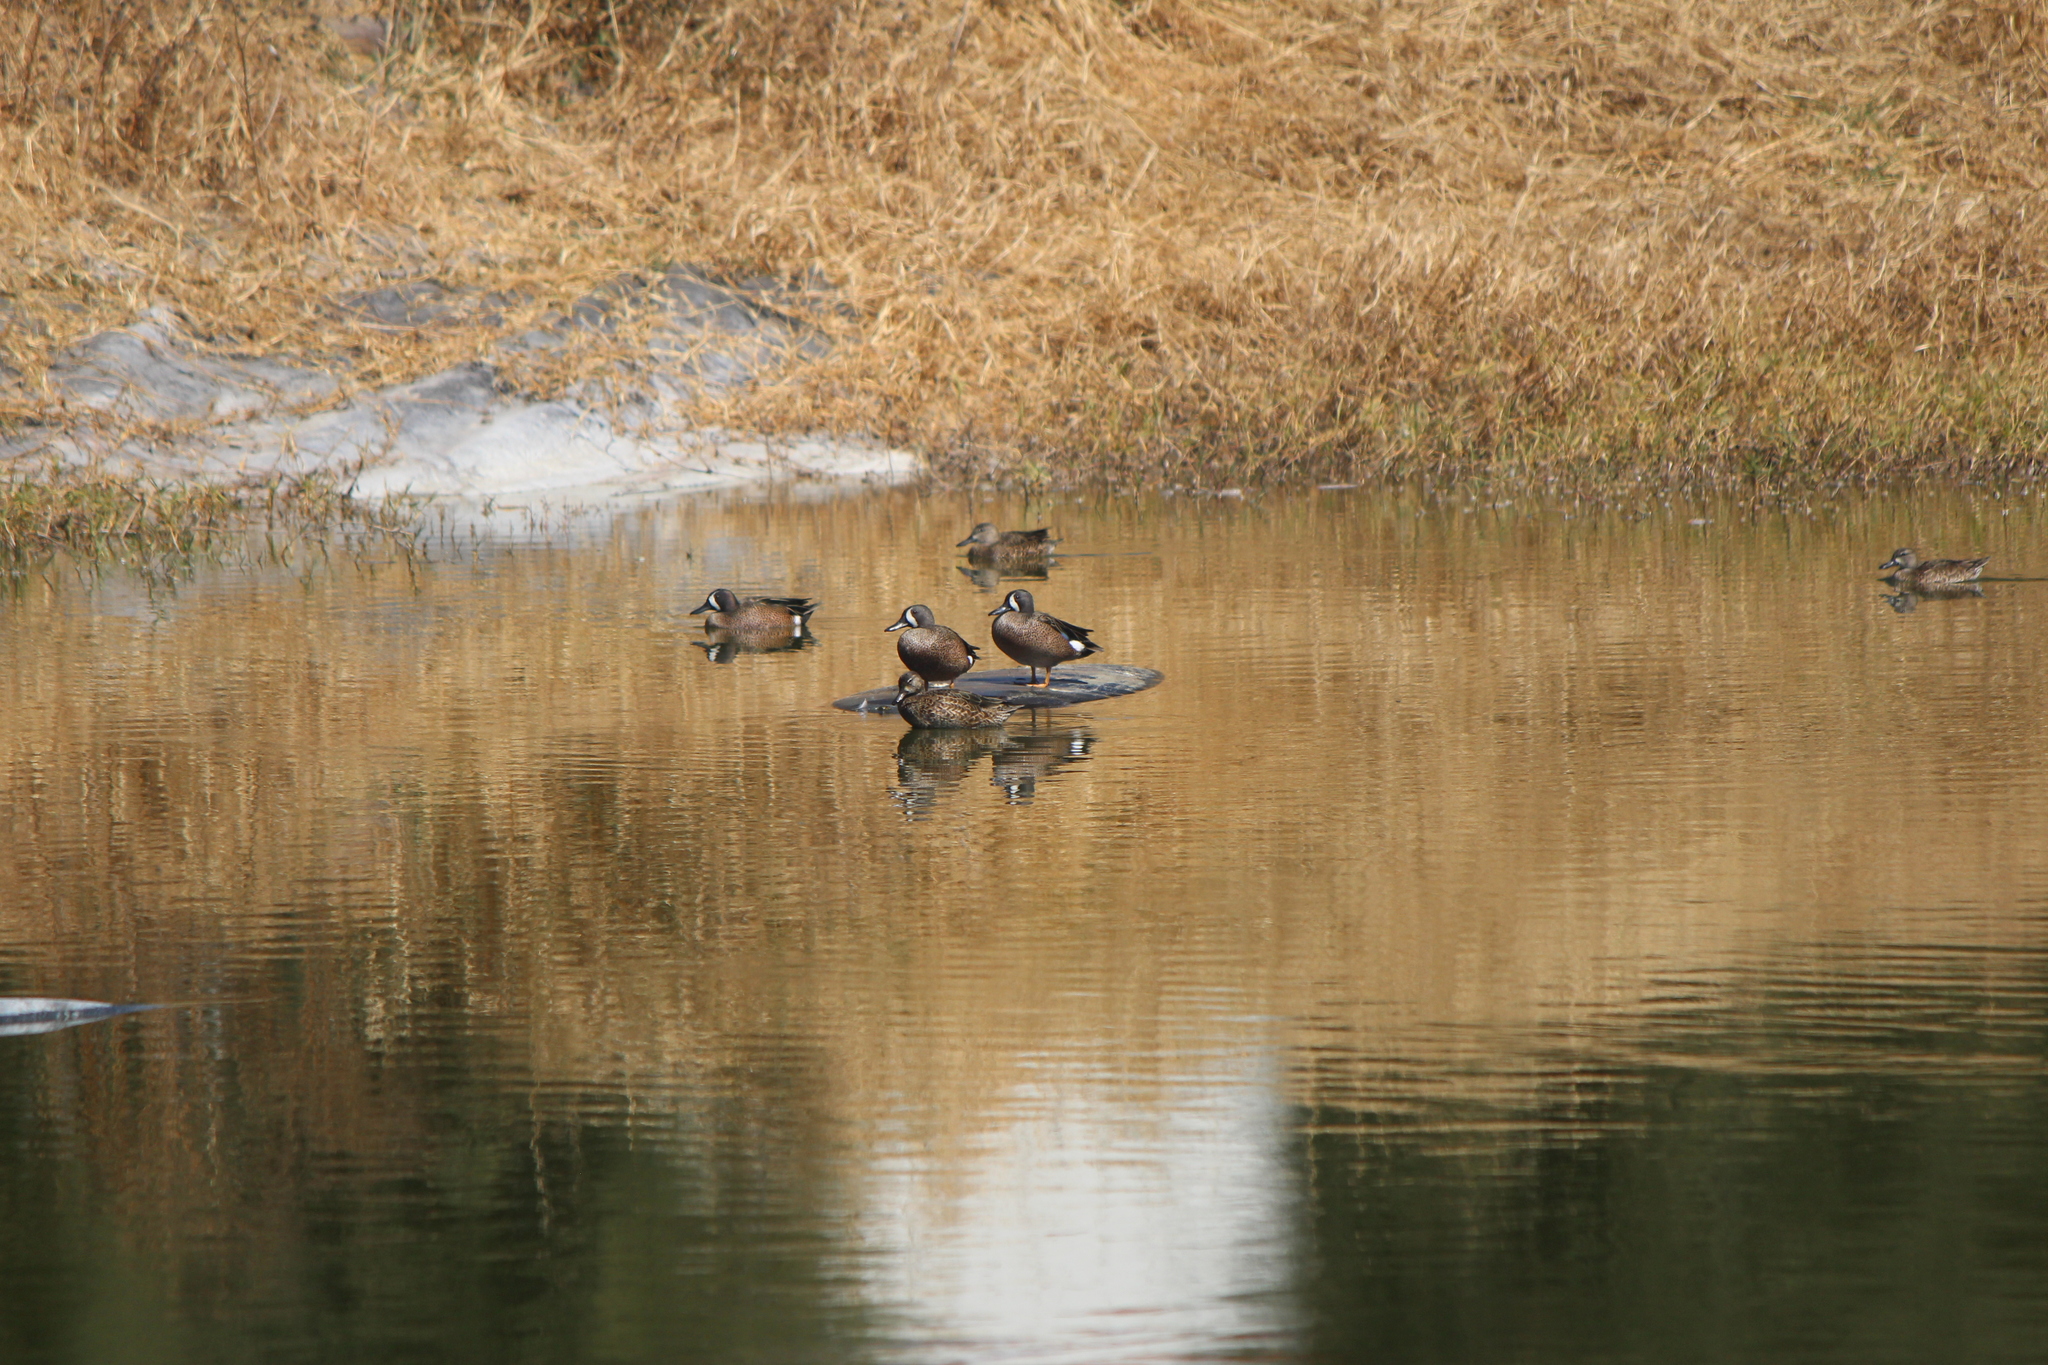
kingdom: Animalia
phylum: Chordata
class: Aves
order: Anseriformes
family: Anatidae
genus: Spatula
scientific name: Spatula discors
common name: Blue-winged teal
